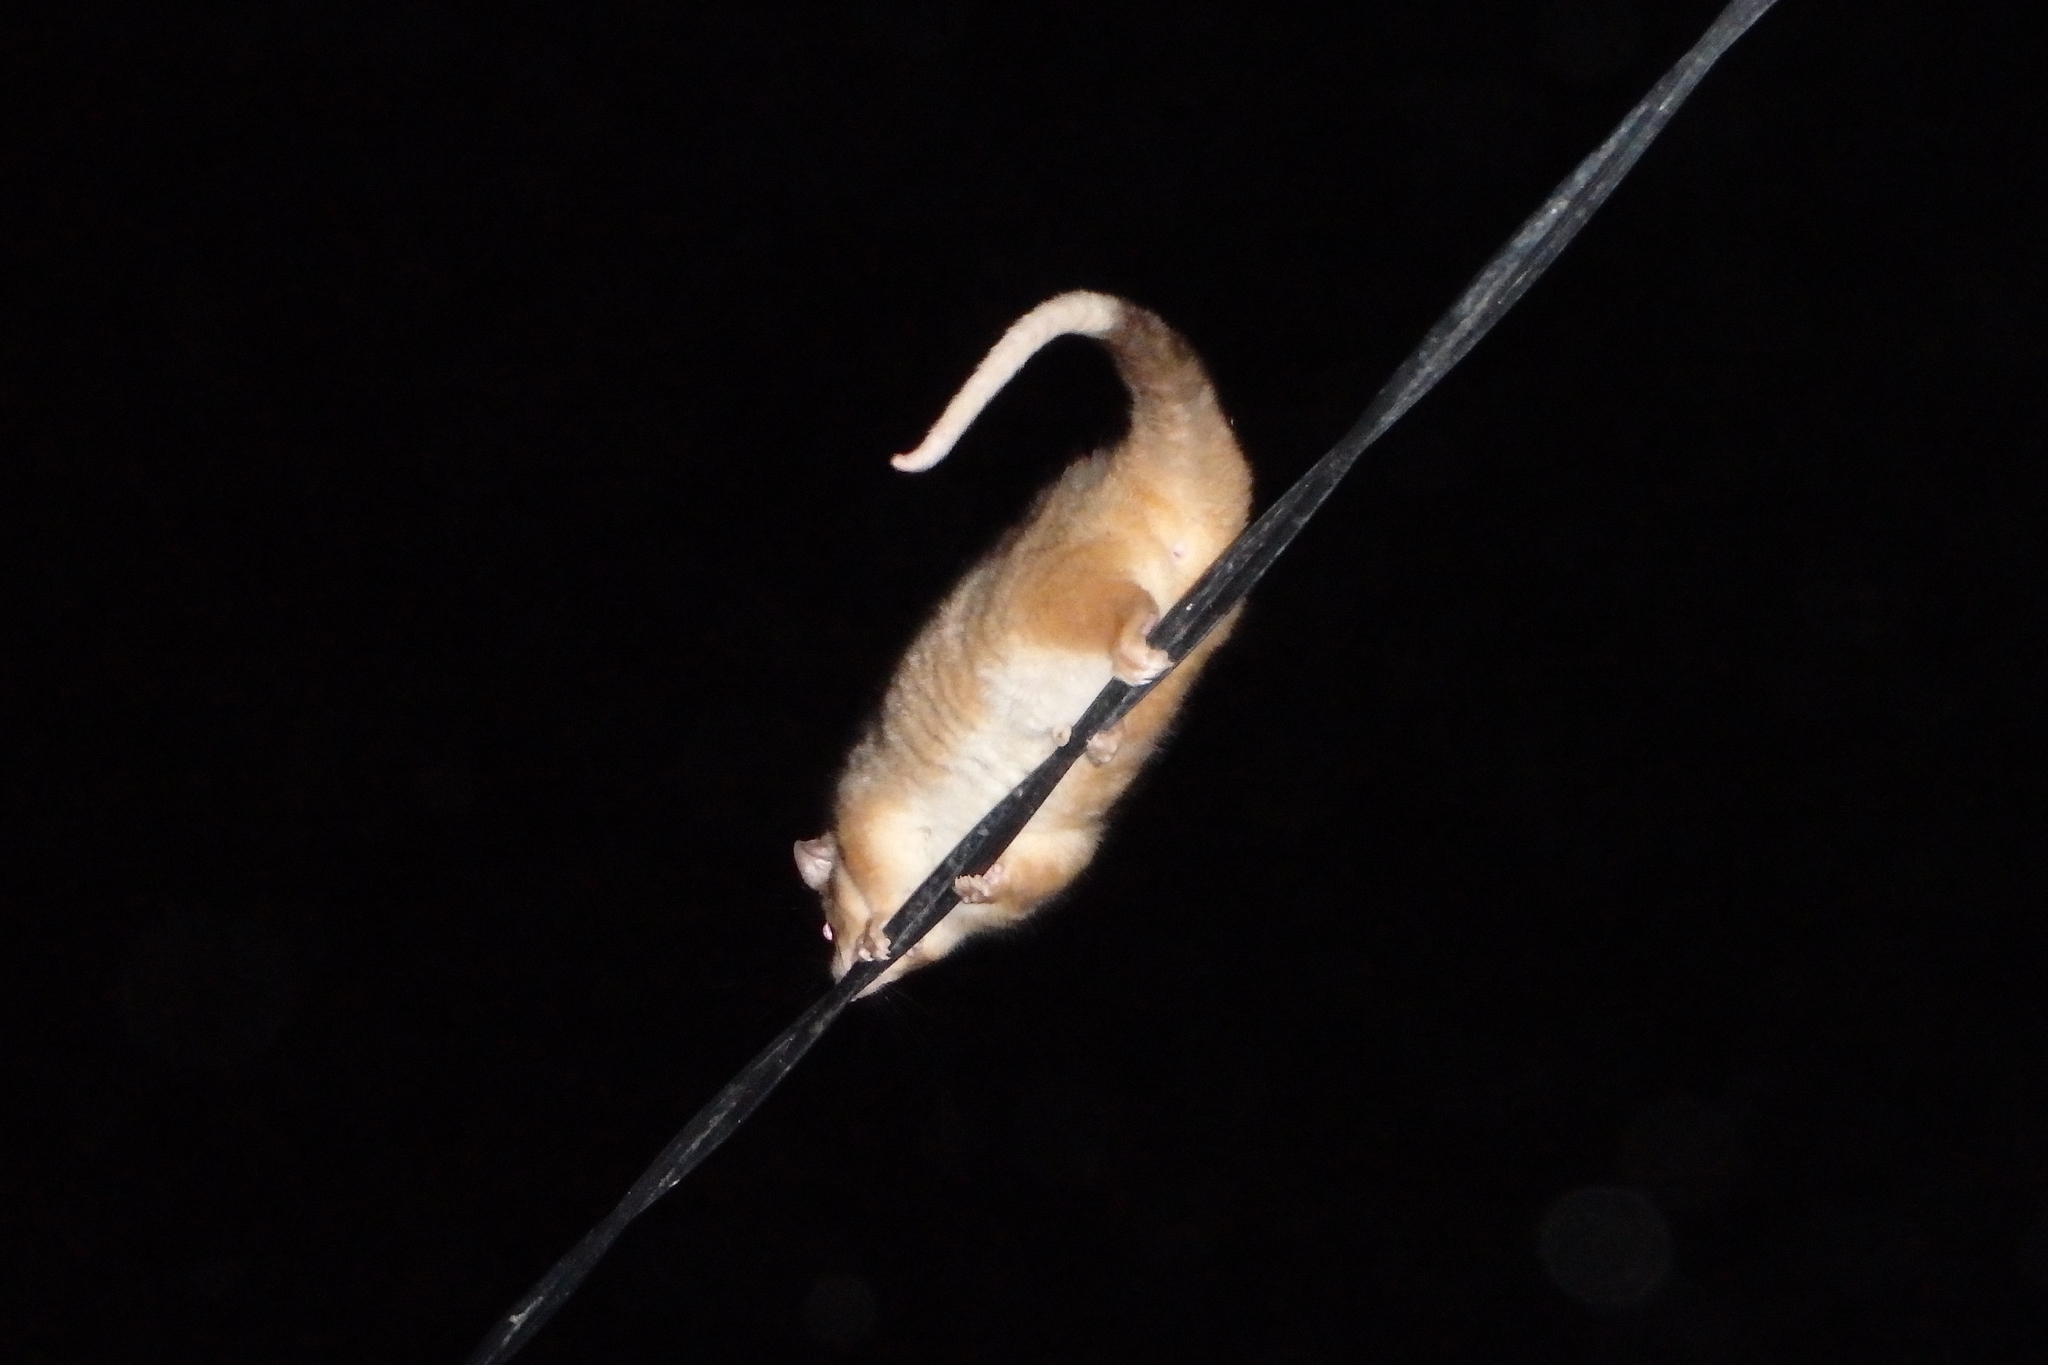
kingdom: Animalia
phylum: Chordata
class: Mammalia
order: Diprotodontia
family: Pseudocheiridae
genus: Pseudocheirus
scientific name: Pseudocheirus peregrinus
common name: Common ringtail possum
